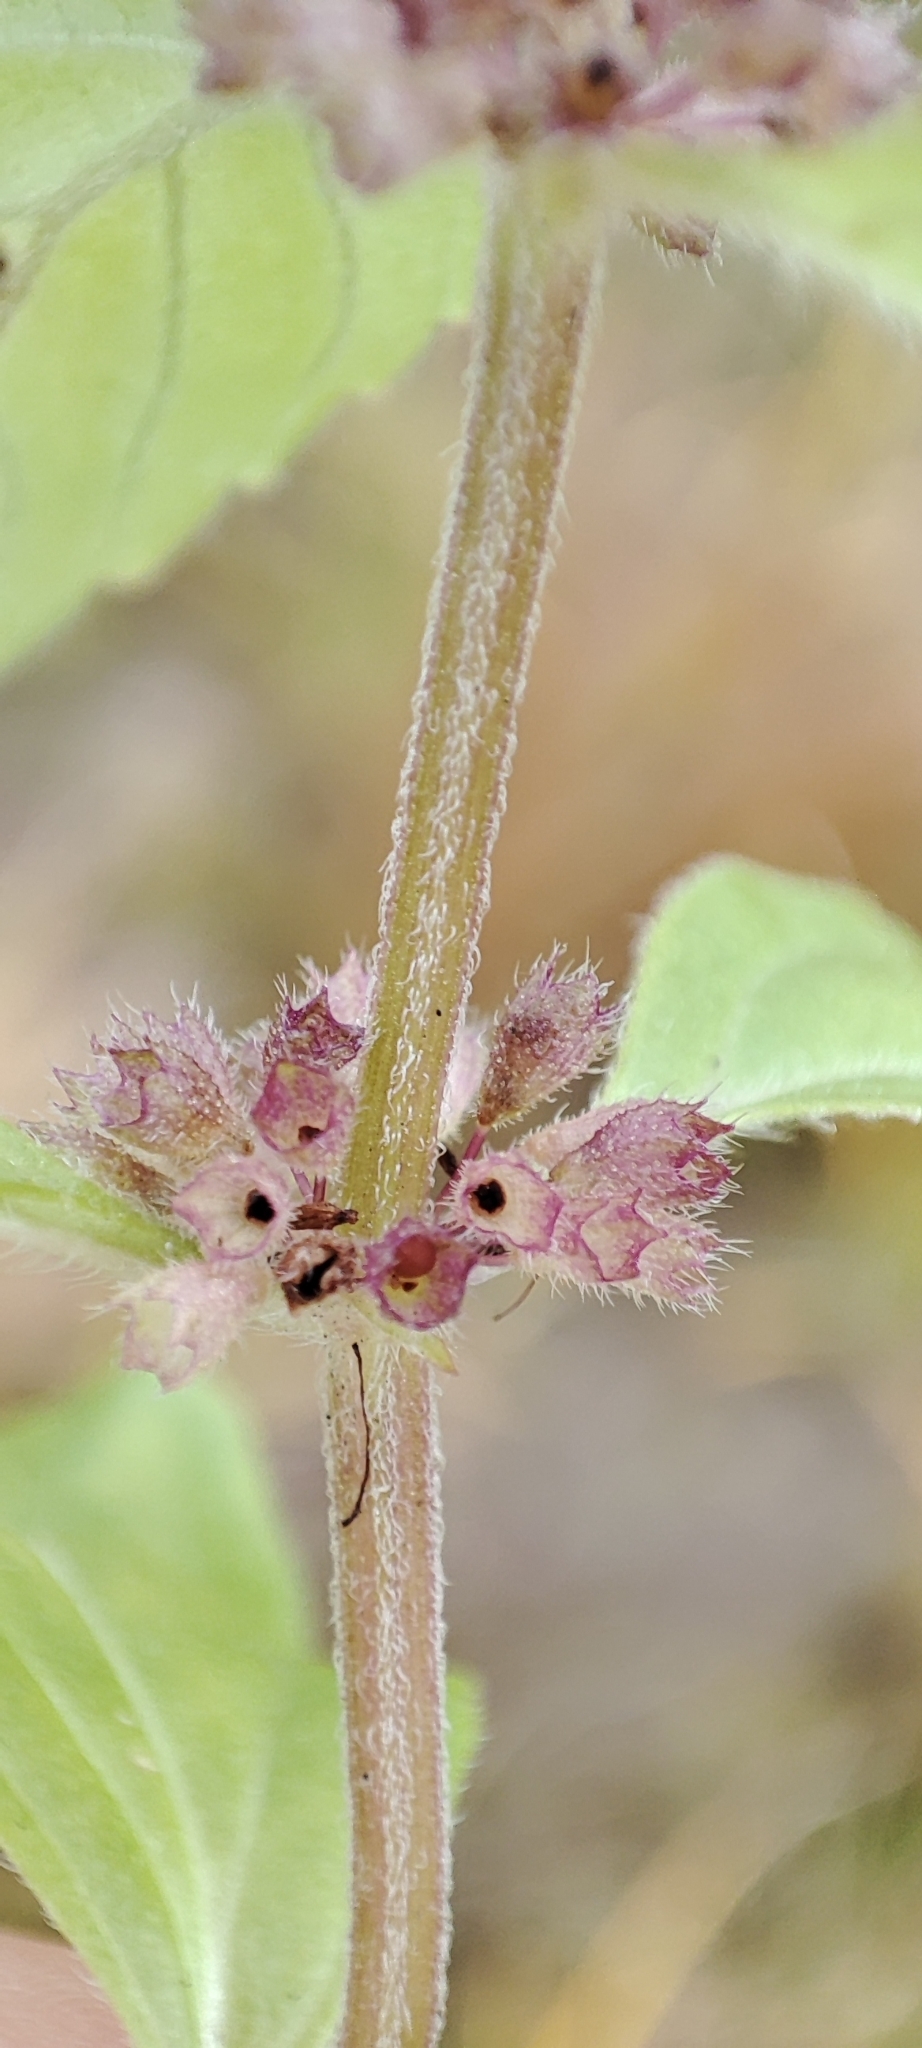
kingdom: Plantae
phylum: Tracheophyta
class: Magnoliopsida
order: Lamiales
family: Lamiaceae
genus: Mentha
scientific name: Mentha arvensis
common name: Corn mint
